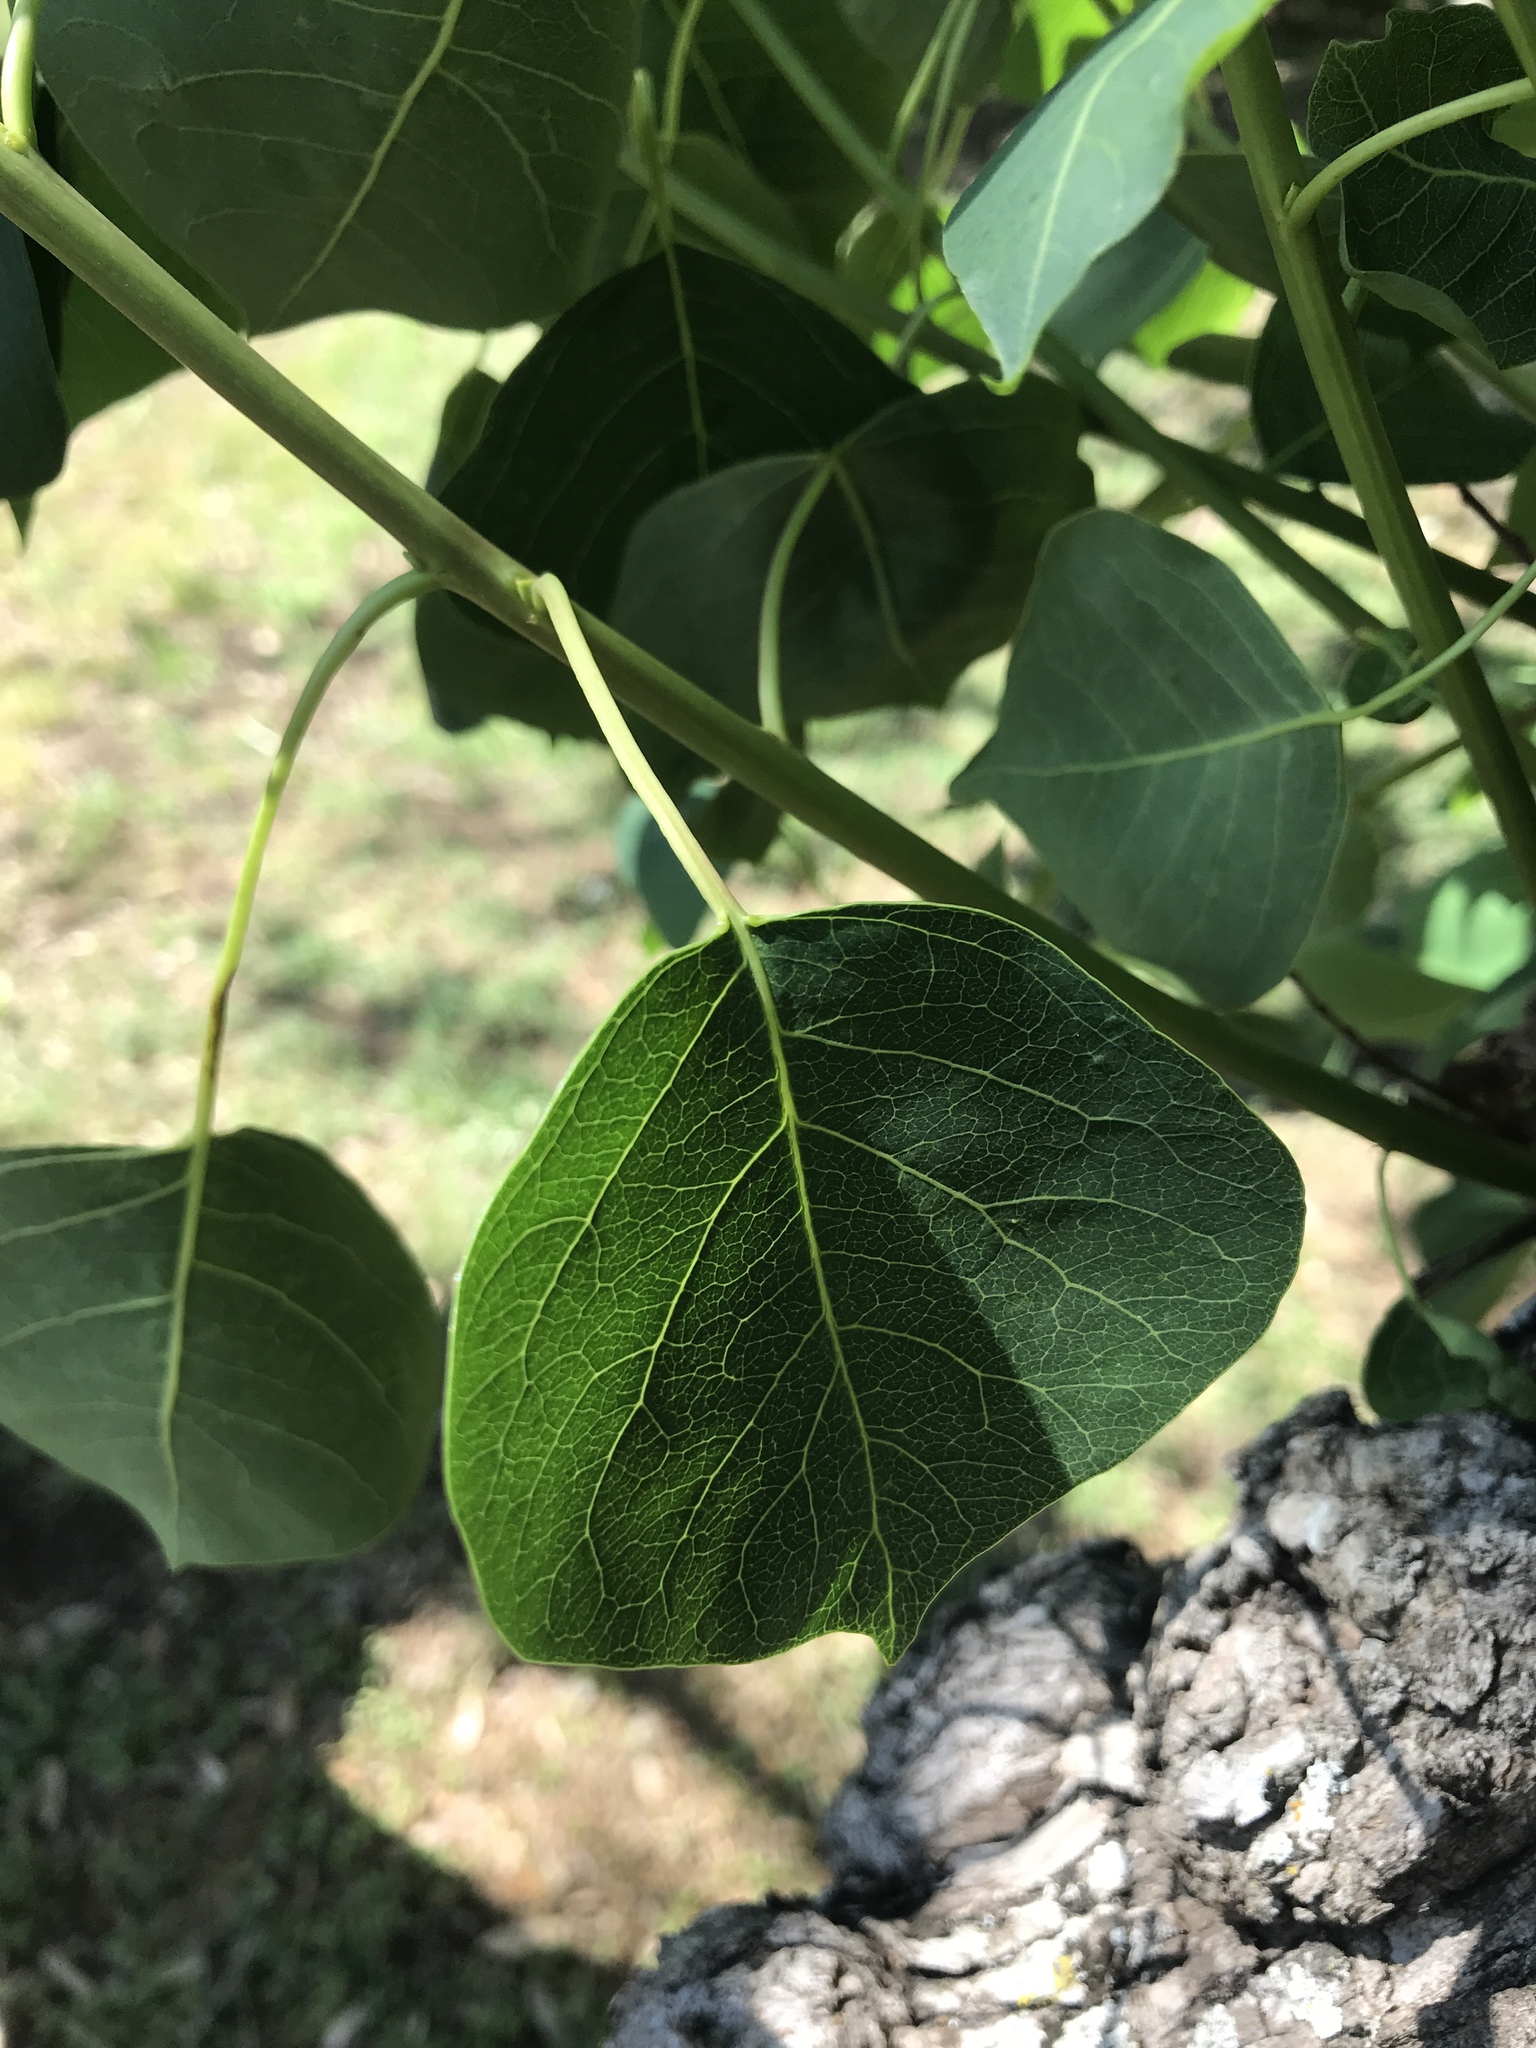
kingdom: Plantae
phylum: Tracheophyta
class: Magnoliopsida
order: Malpighiales
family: Euphorbiaceae
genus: Triadica
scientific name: Triadica sebifera
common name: Chinese tallow
